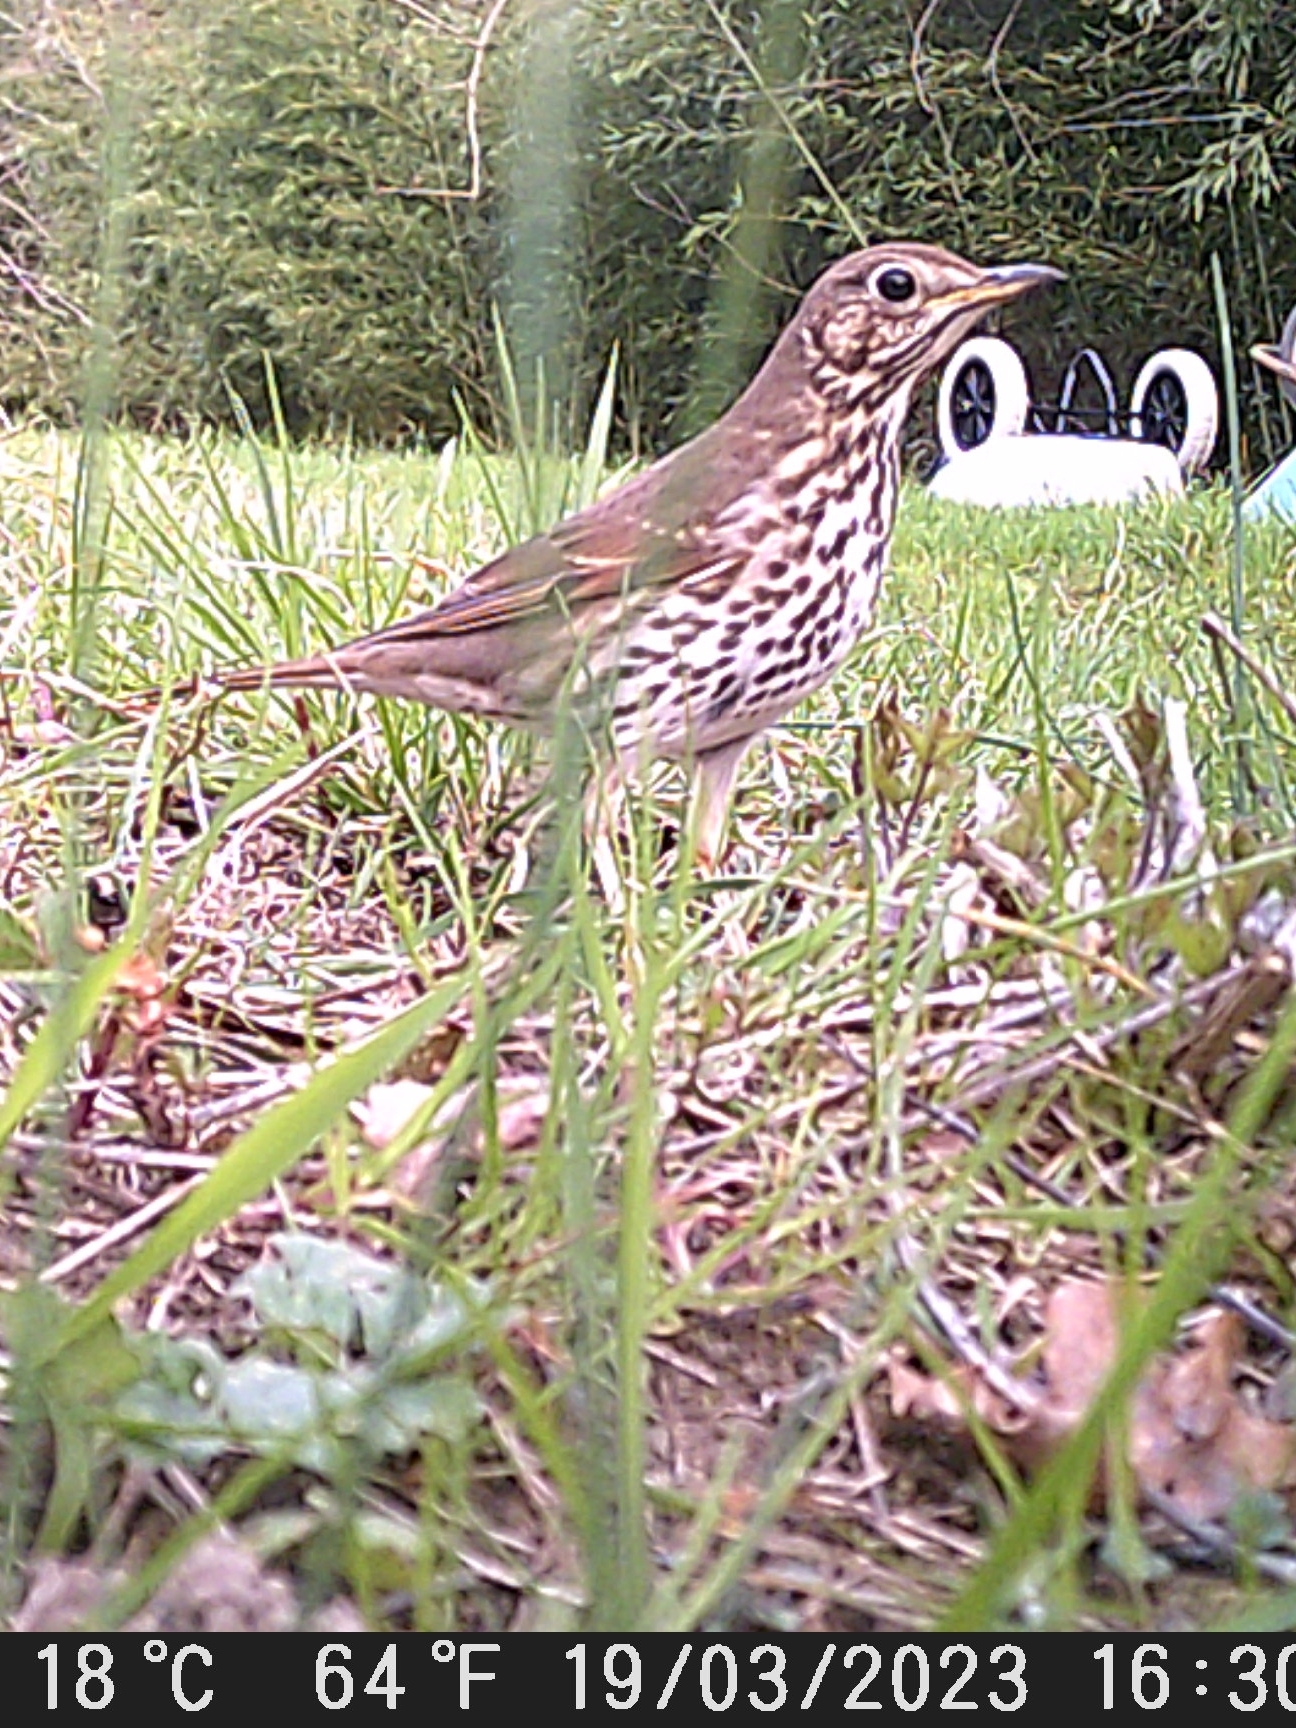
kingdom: Animalia
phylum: Chordata
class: Aves
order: Passeriformes
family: Turdidae
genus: Turdus
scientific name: Turdus philomelos
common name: Song thrush
